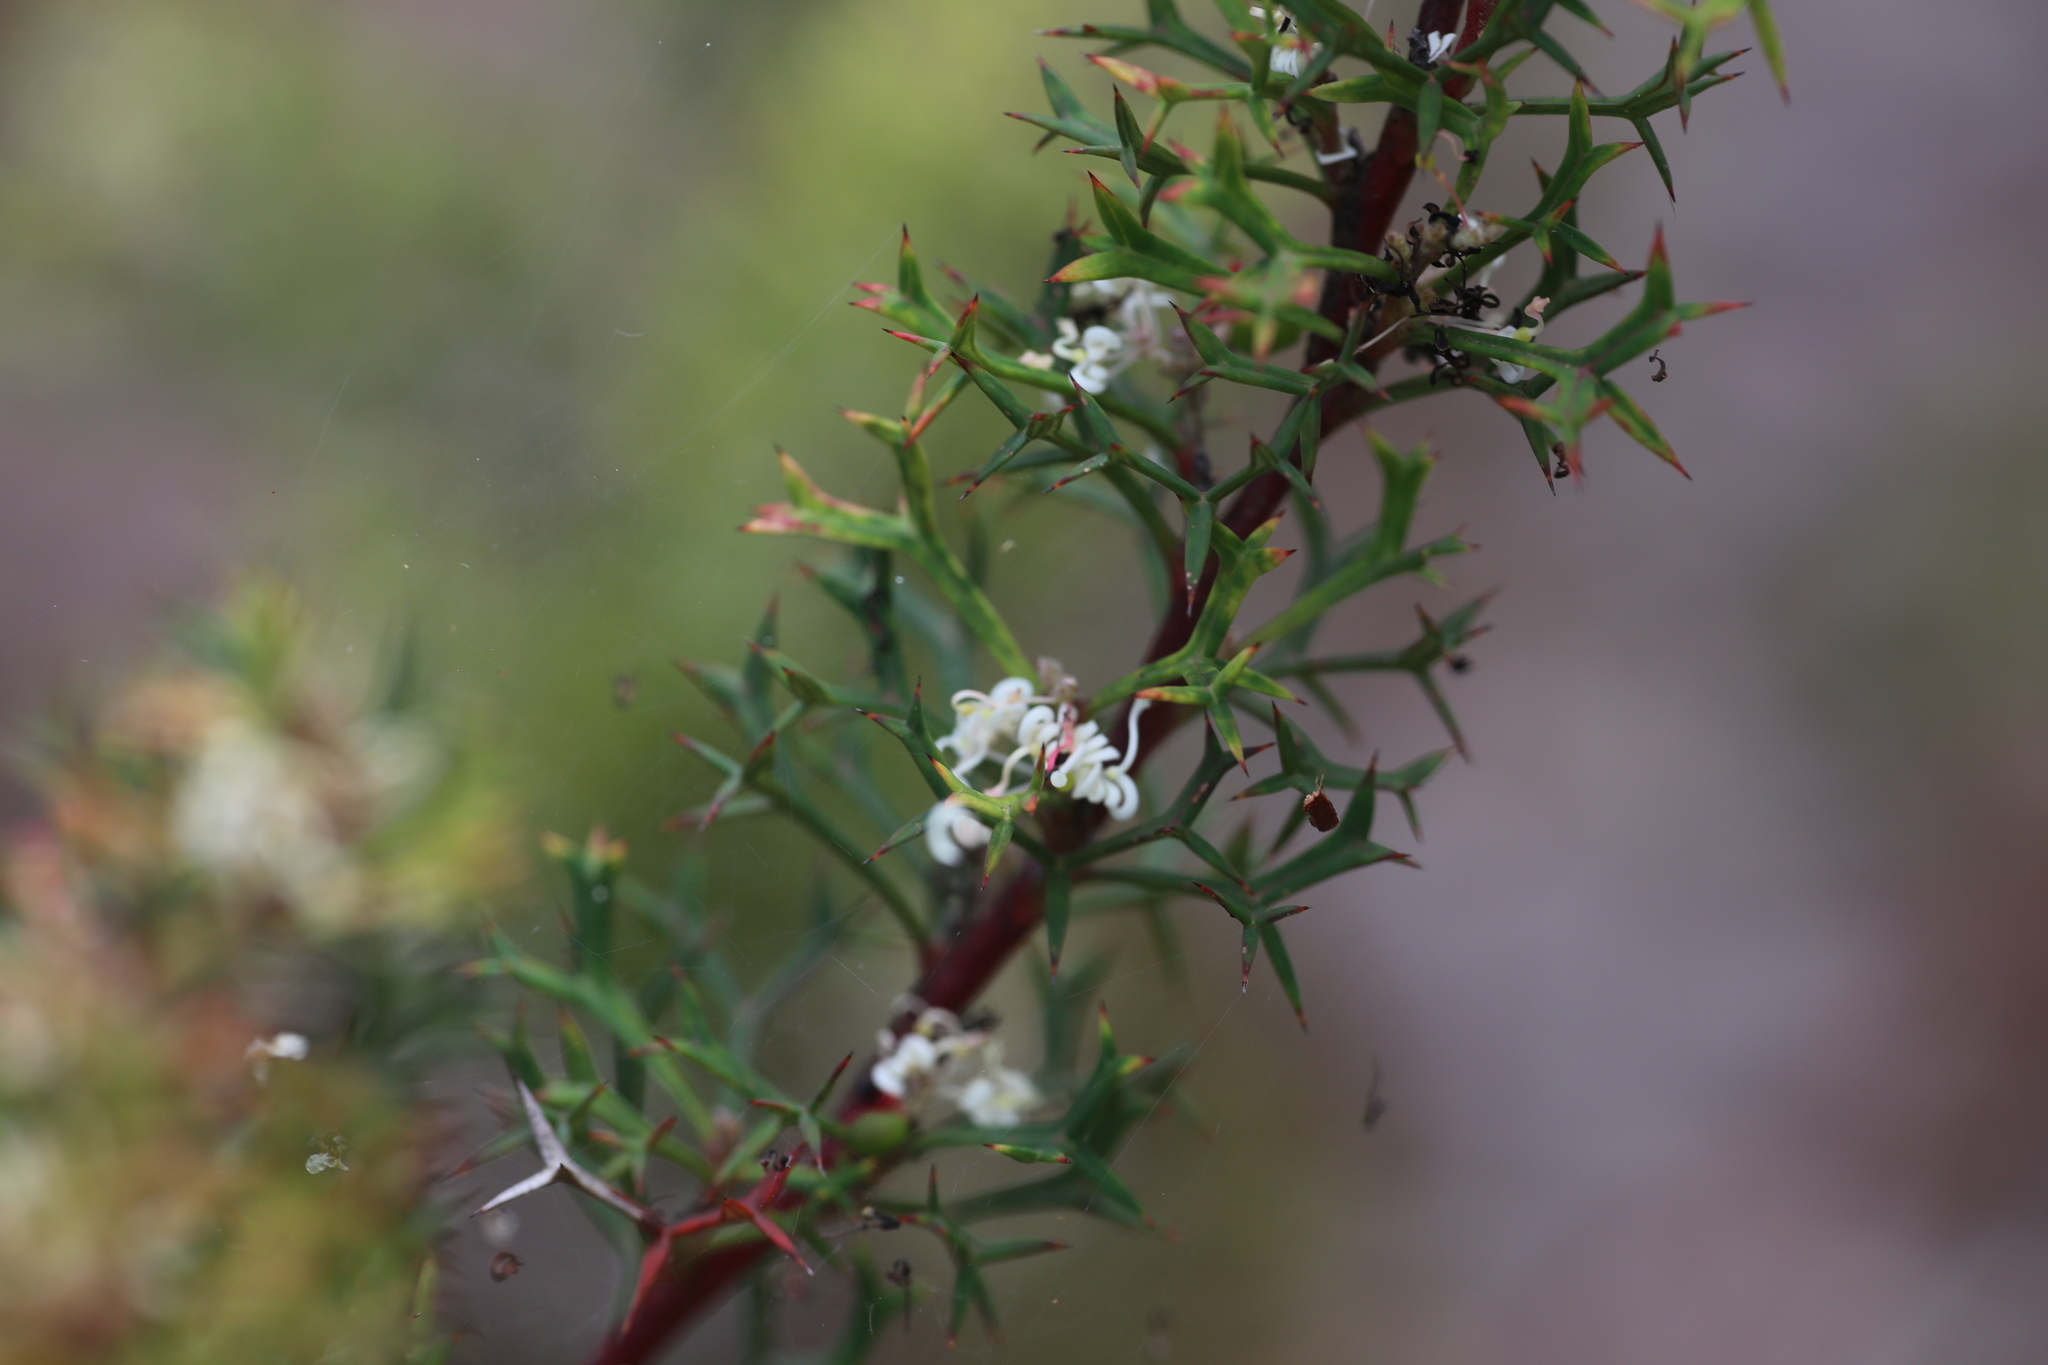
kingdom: Plantae
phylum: Tracheophyta
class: Magnoliopsida
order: Proteales
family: Proteaceae
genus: Grevillea
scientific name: Grevillea trifida
